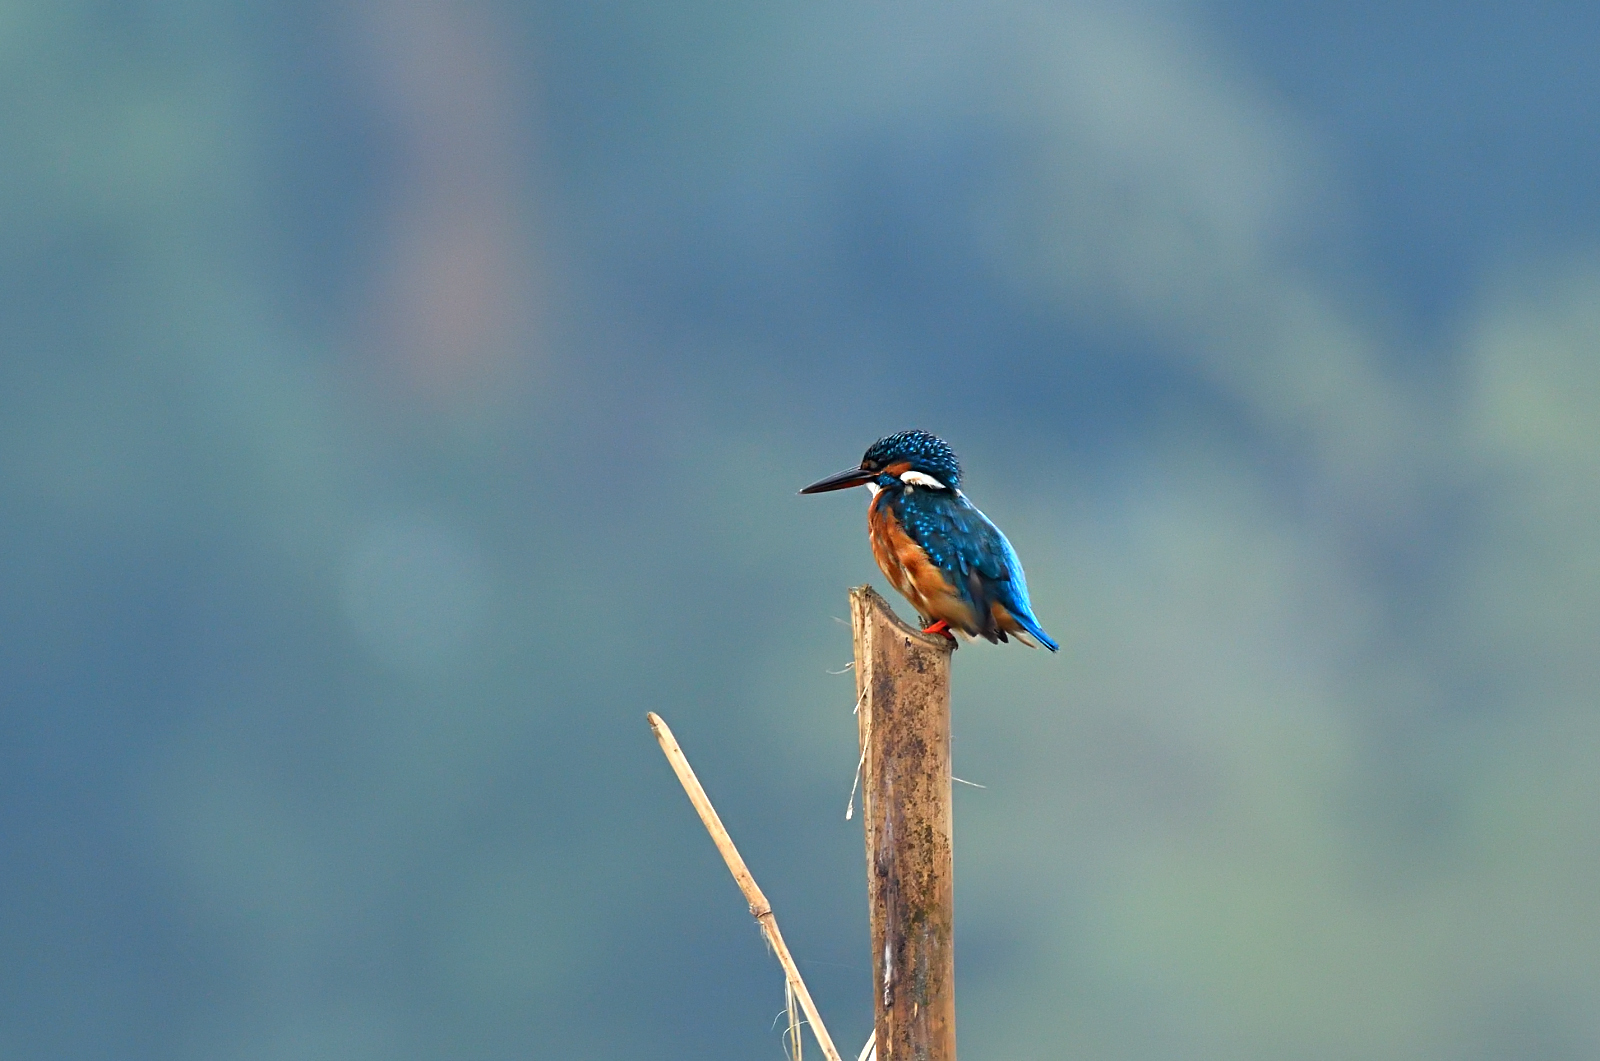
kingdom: Animalia
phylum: Chordata
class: Aves
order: Coraciiformes
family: Alcedinidae
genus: Alcedo
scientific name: Alcedo atthis
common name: Common kingfisher
